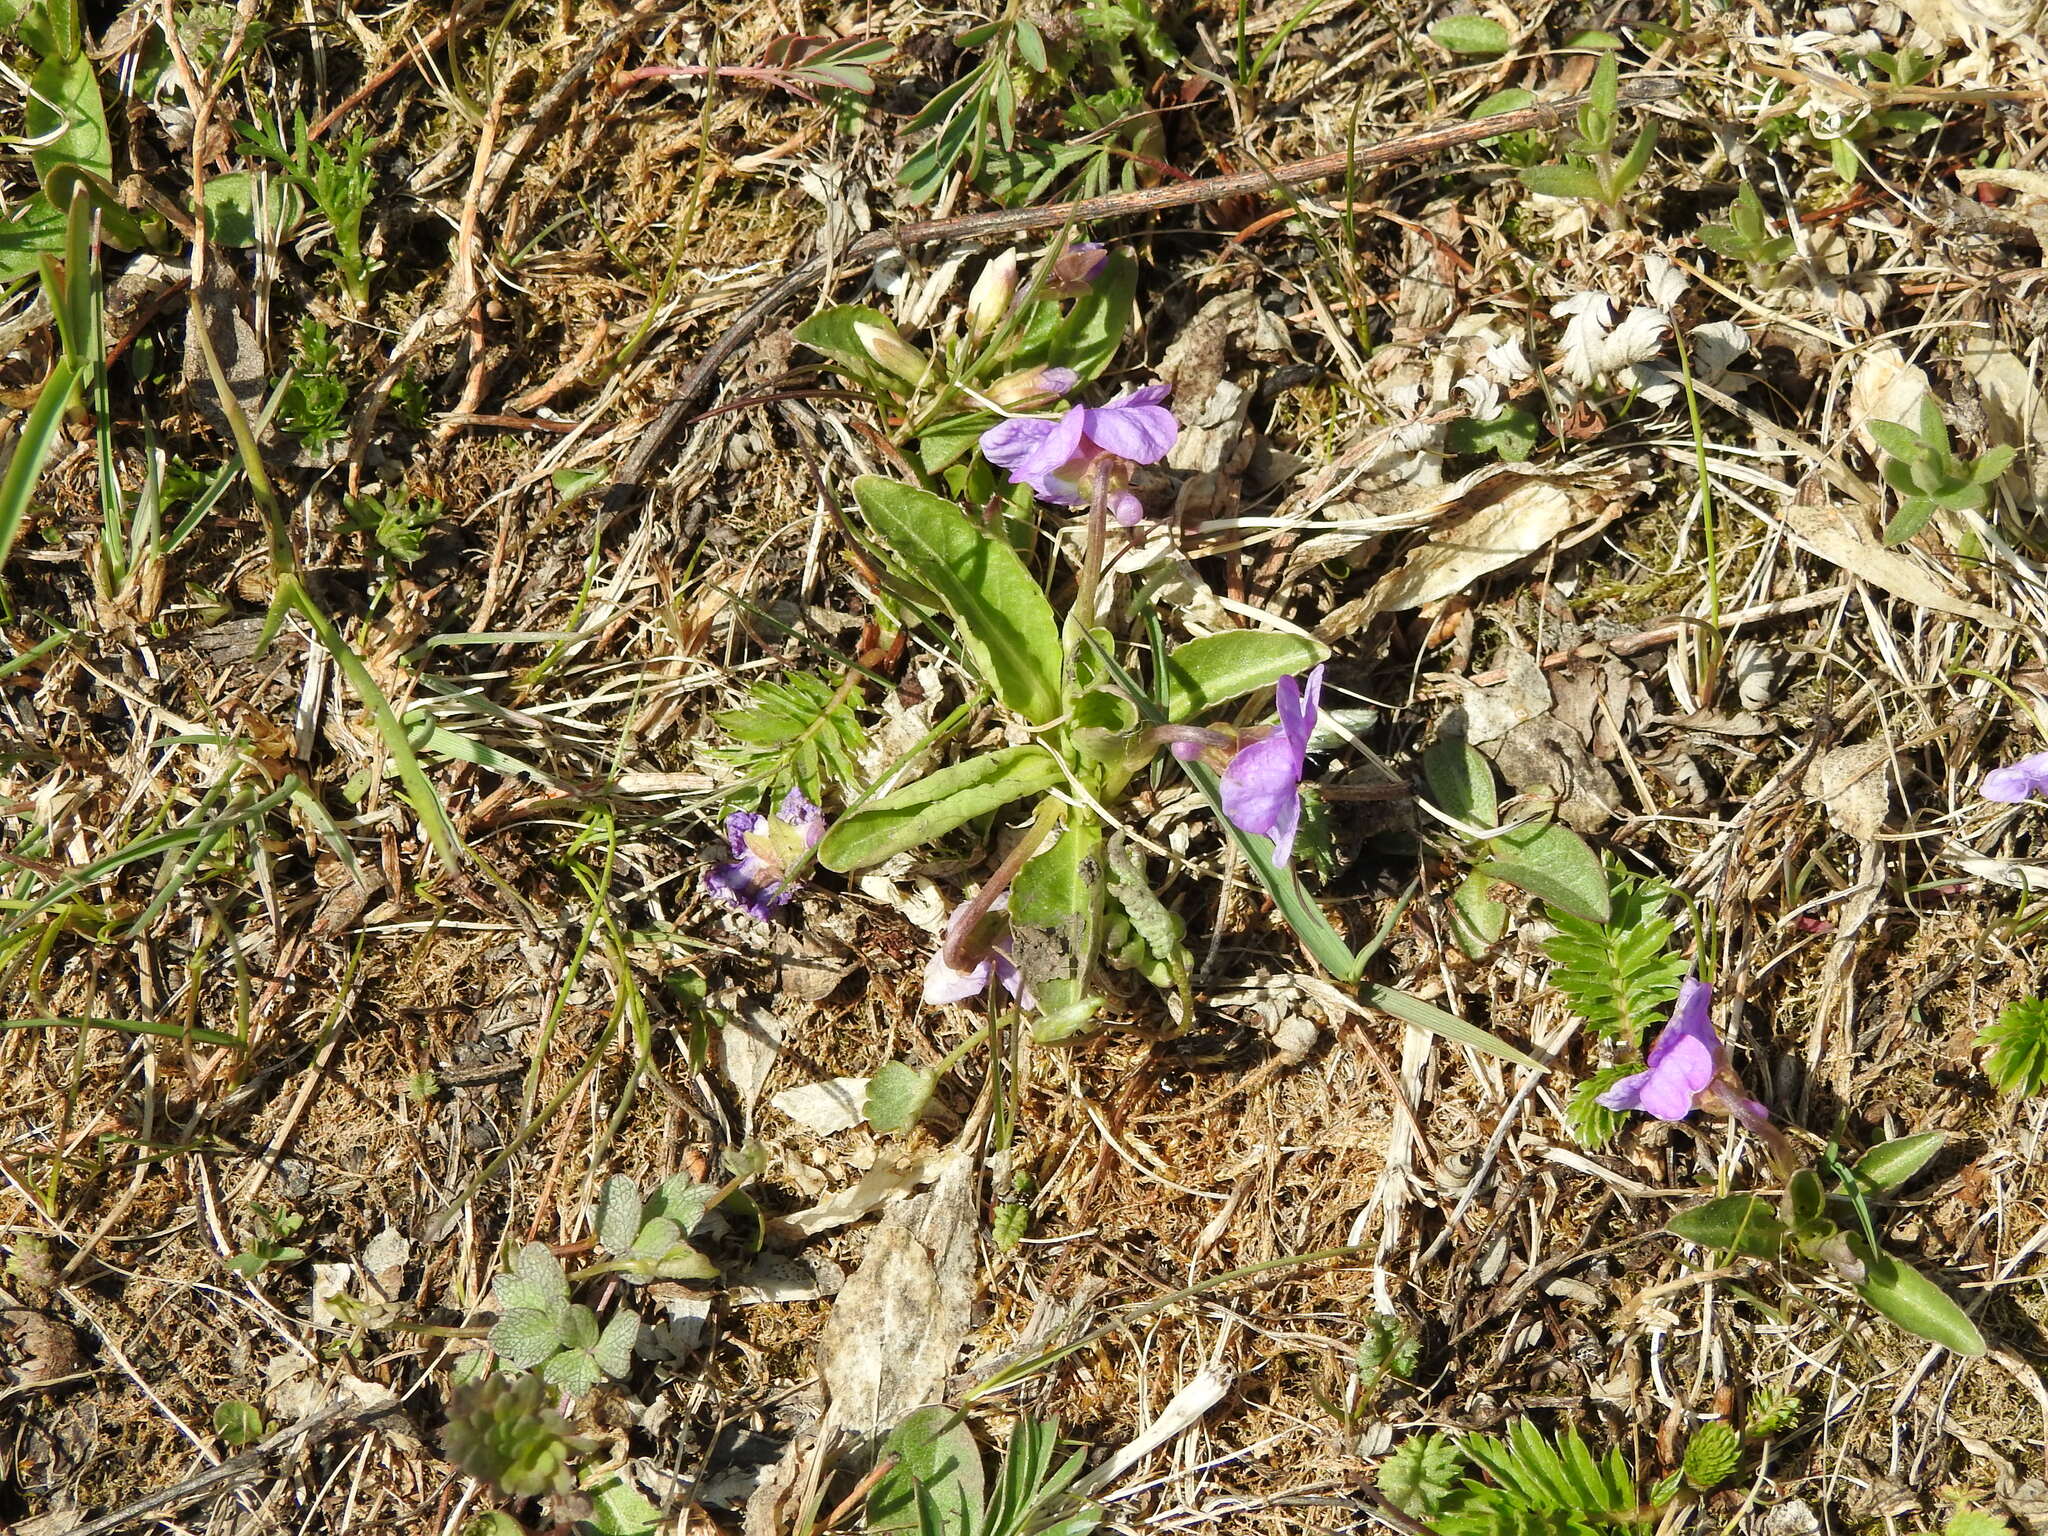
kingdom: Plantae
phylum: Tracheophyta
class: Magnoliopsida
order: Malpighiales
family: Violaceae
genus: Viola
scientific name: Viola gmeliniana
